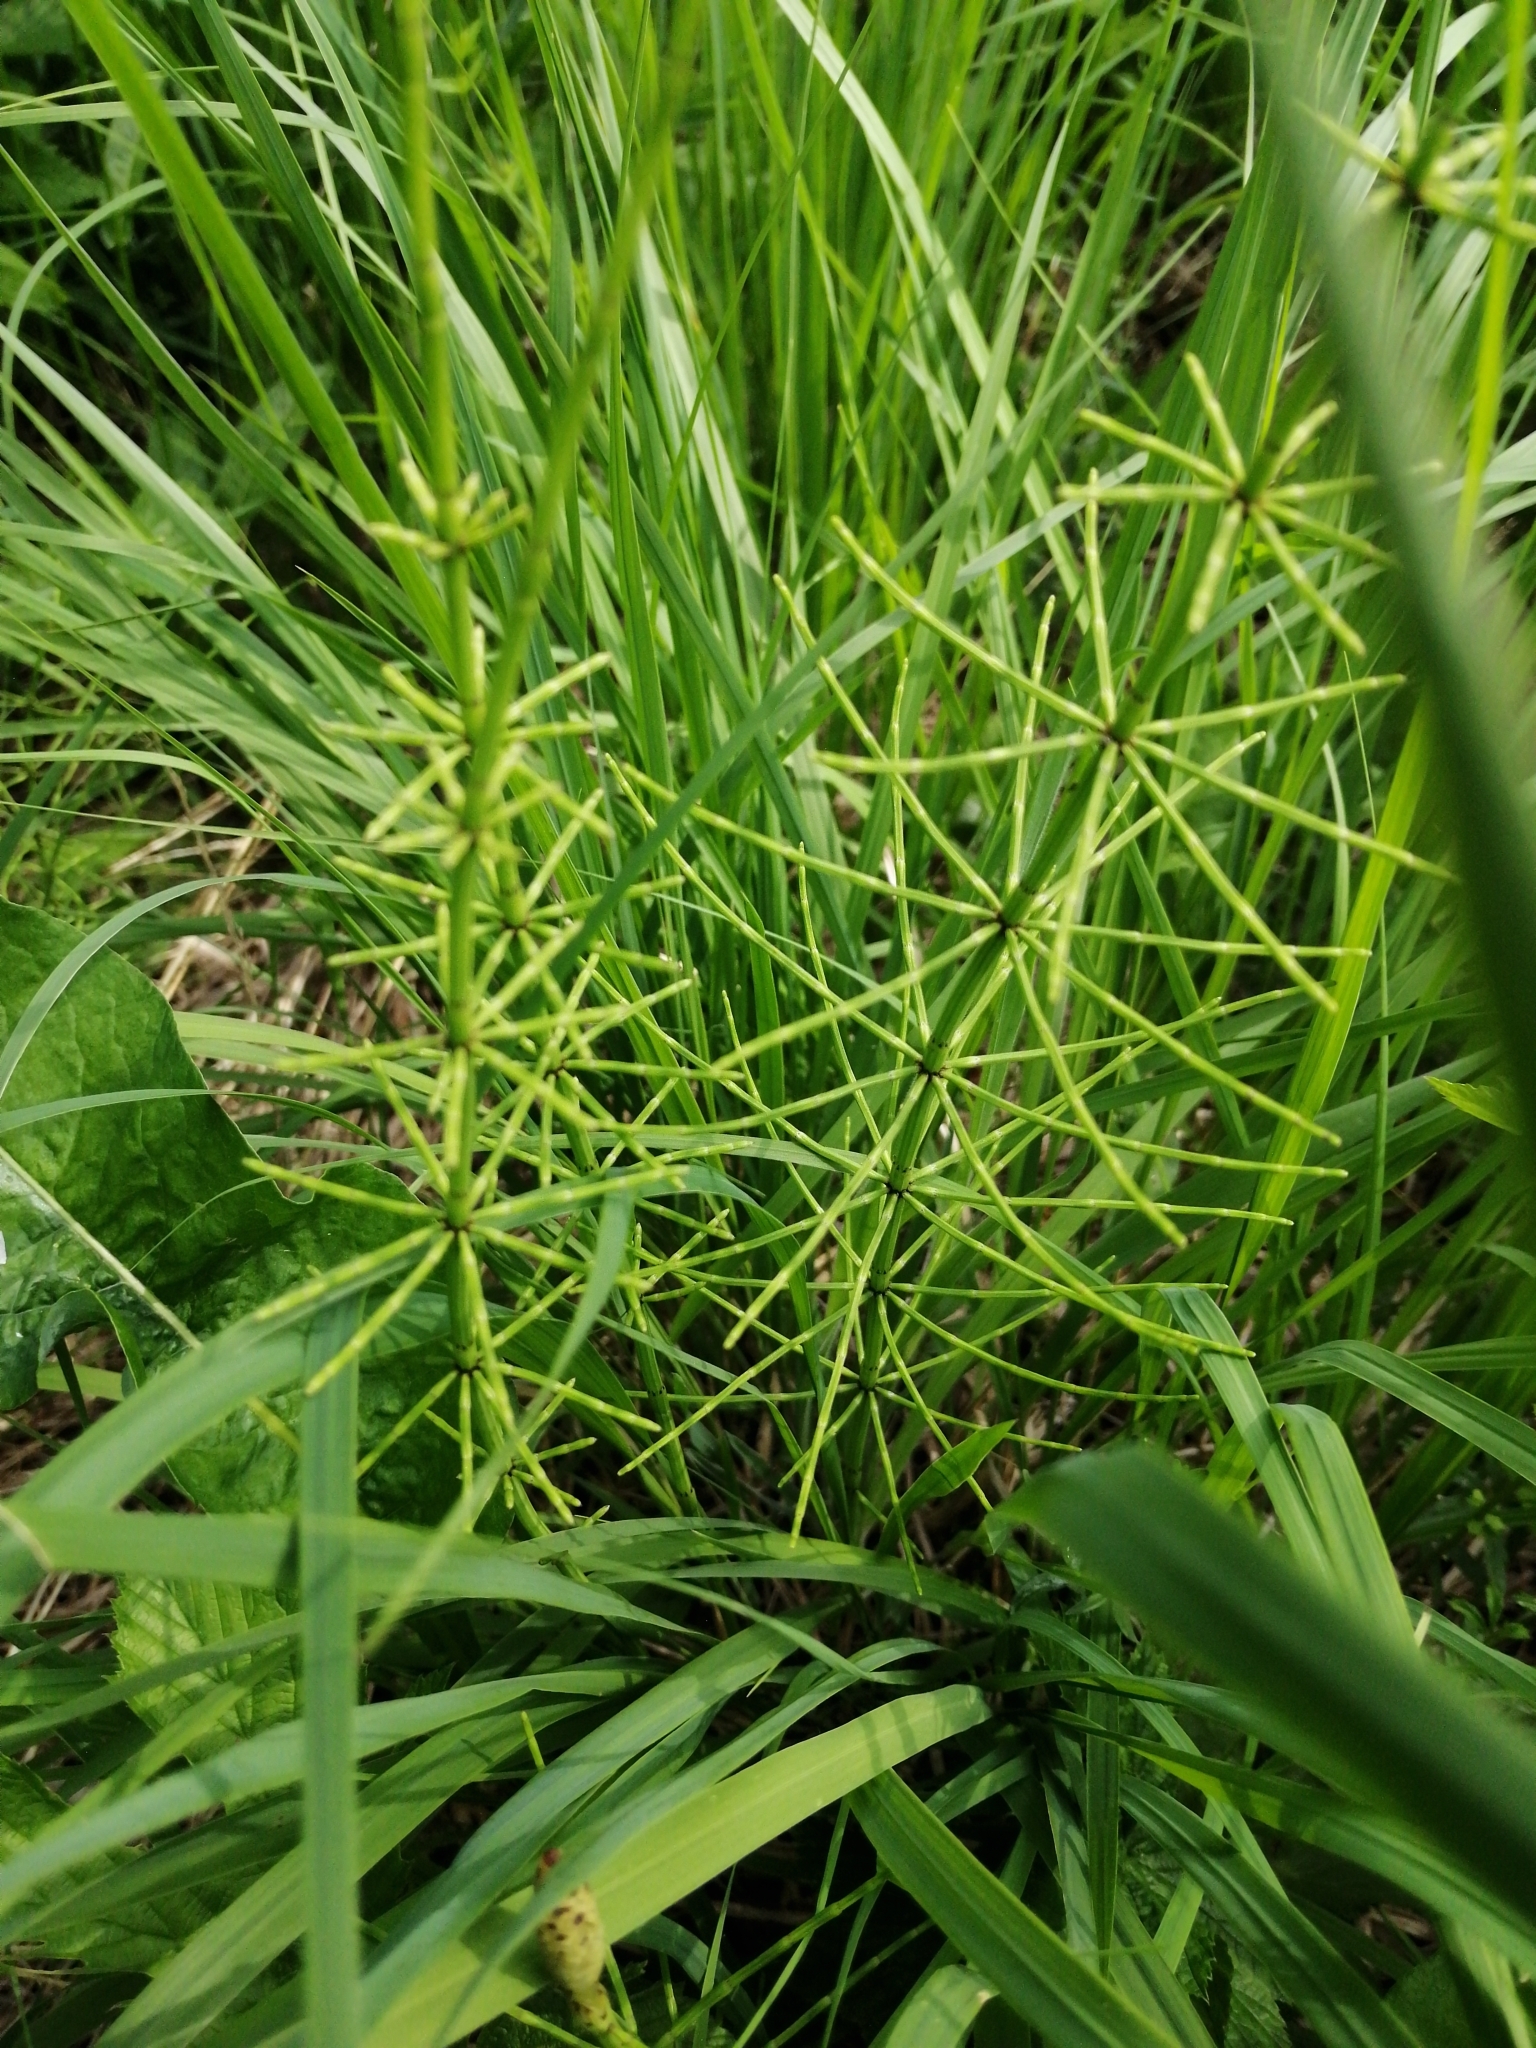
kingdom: Plantae
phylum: Tracheophyta
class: Polypodiopsida
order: Equisetales
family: Equisetaceae
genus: Equisetum
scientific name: Equisetum palustre
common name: Marsh horsetail
